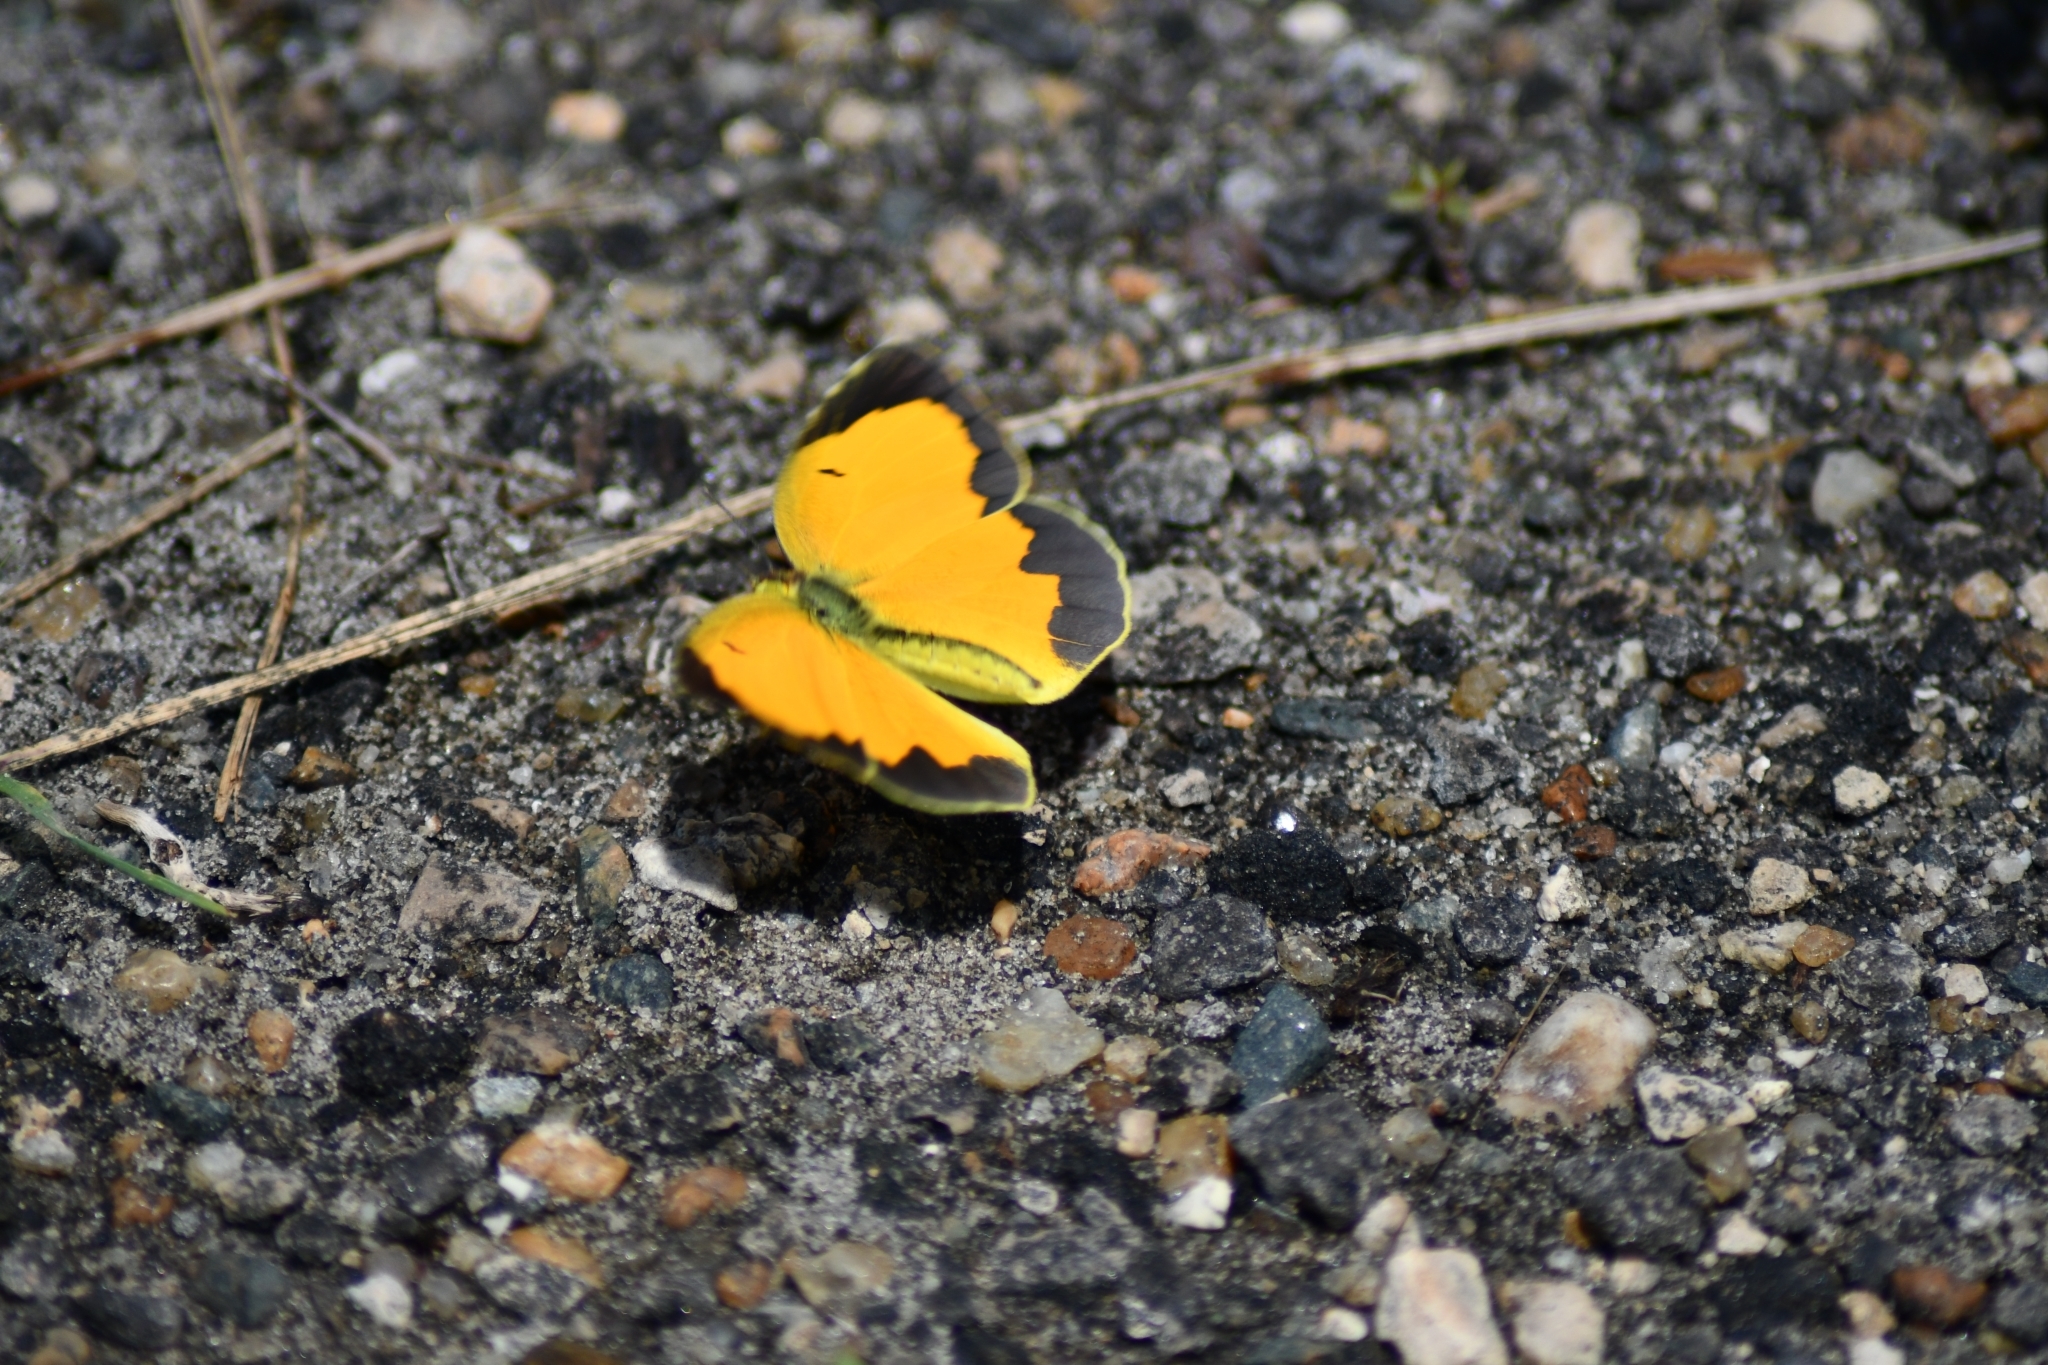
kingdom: Animalia
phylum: Arthropoda
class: Insecta
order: Lepidoptera
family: Pieridae
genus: Abaeis
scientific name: Abaeis nicippe
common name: Sleepy orange
